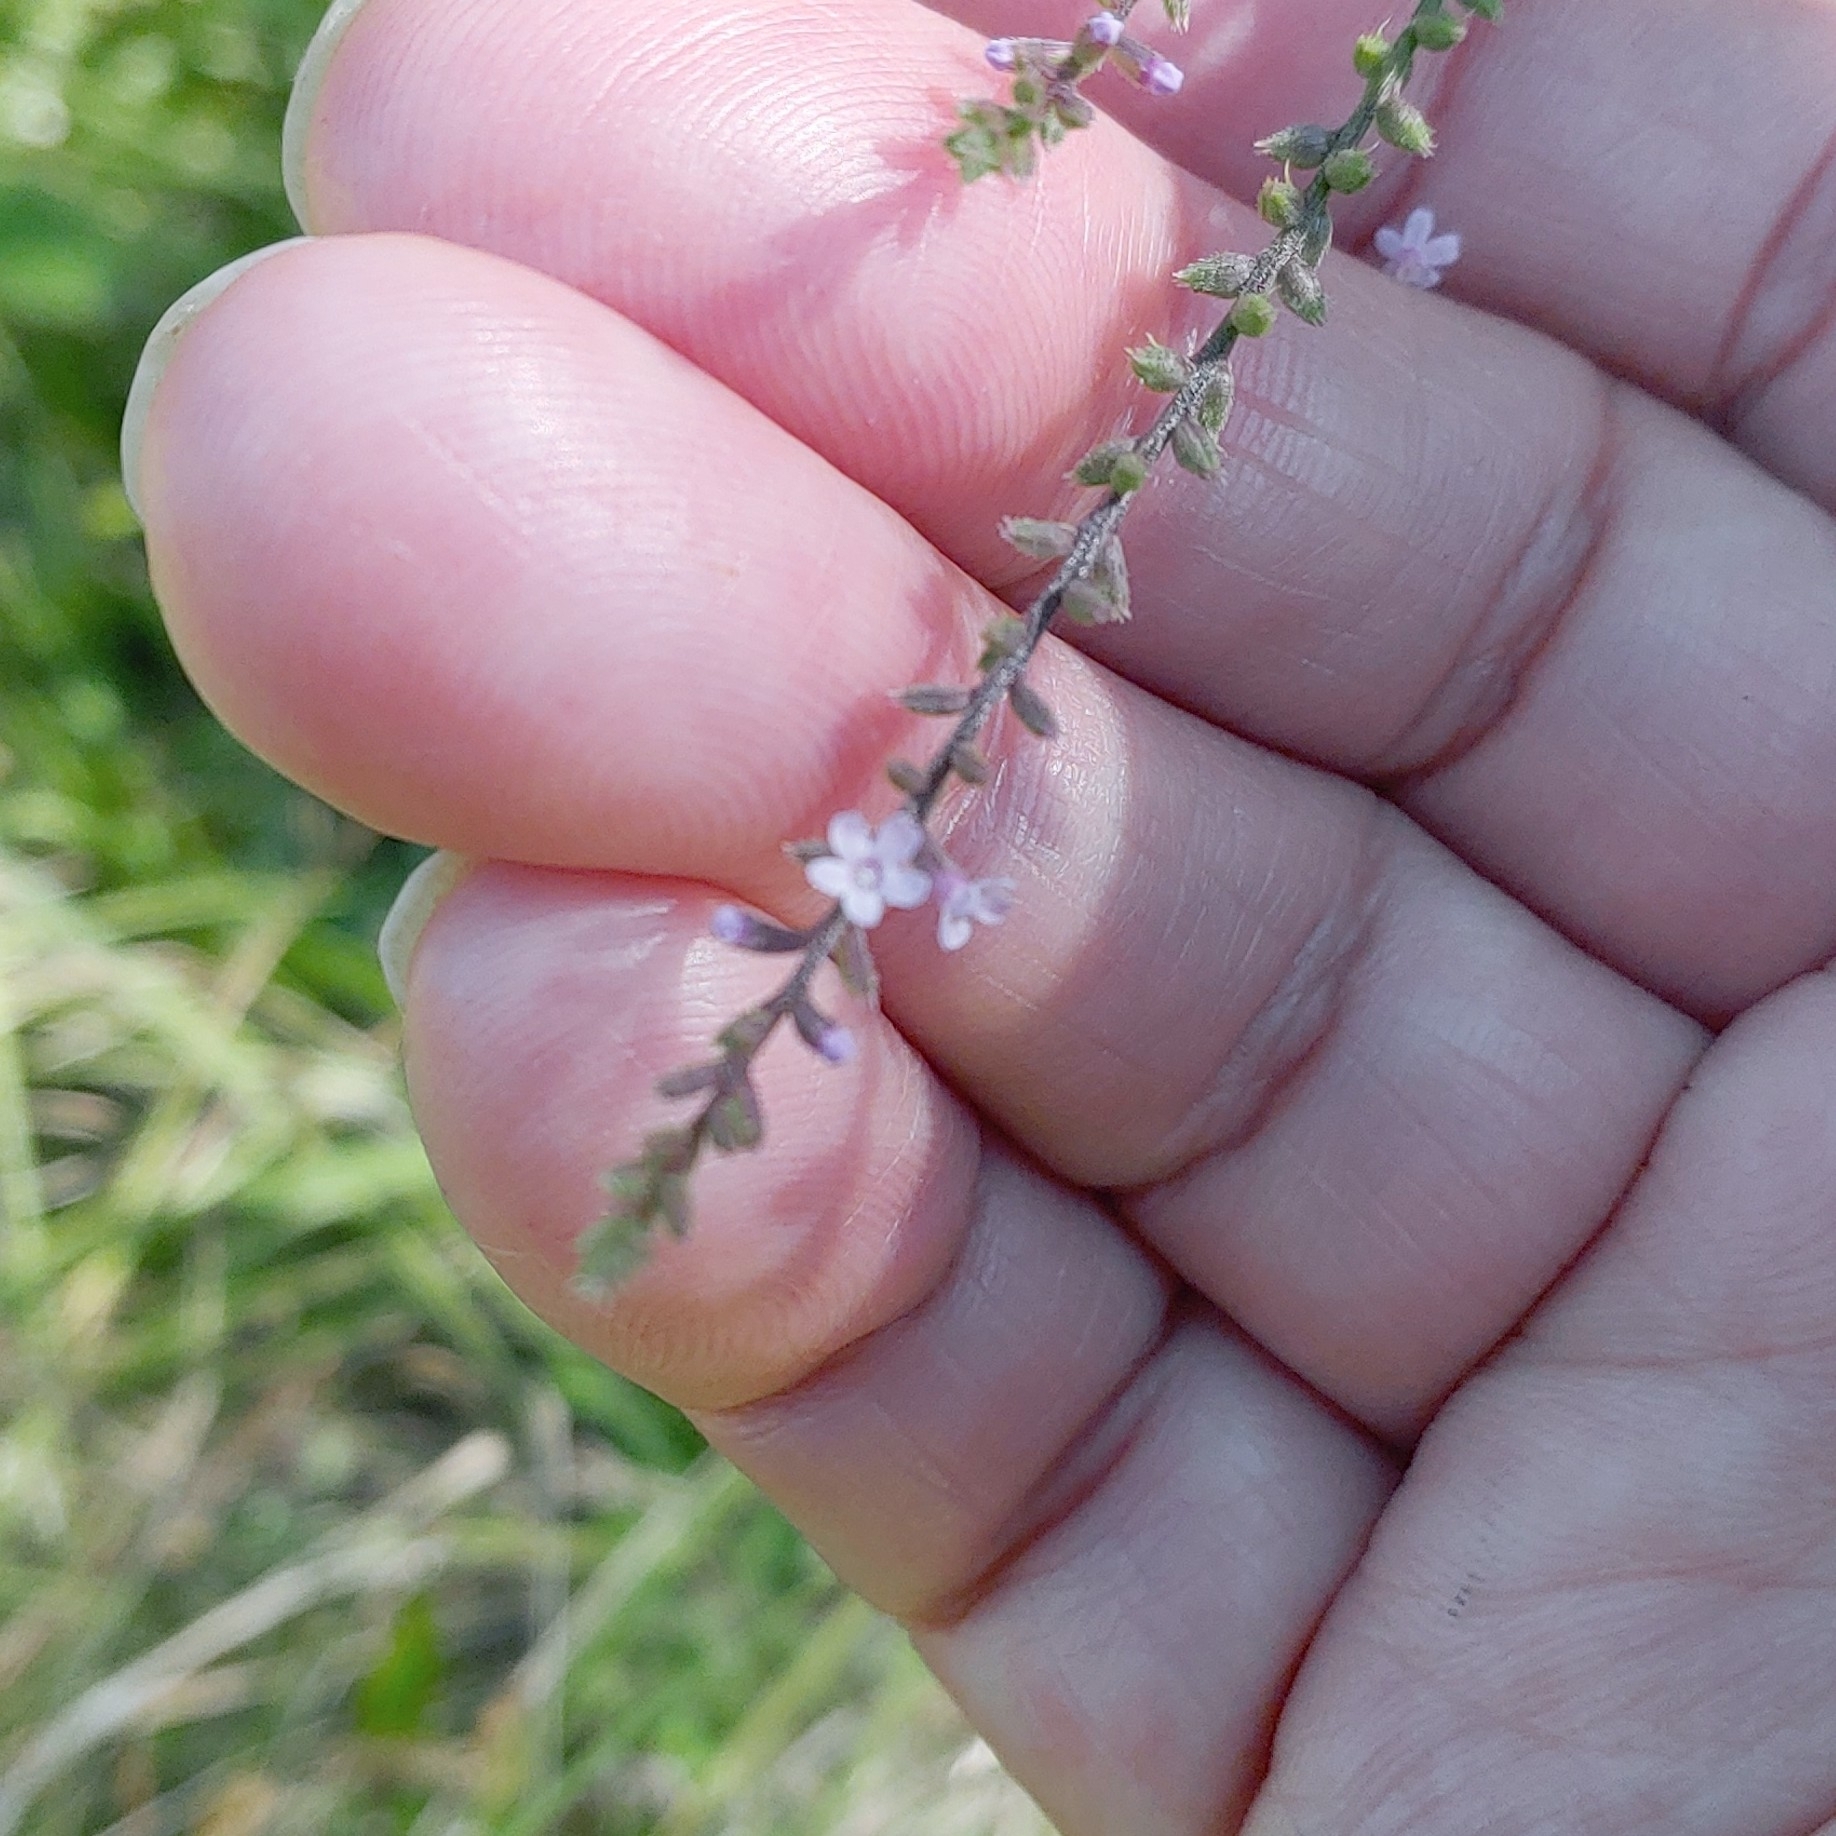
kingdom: Plantae
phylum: Tracheophyta
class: Magnoliopsida
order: Lamiales
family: Verbenaceae
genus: Verbena
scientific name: Verbena scabra
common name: Sandpaper vervain
